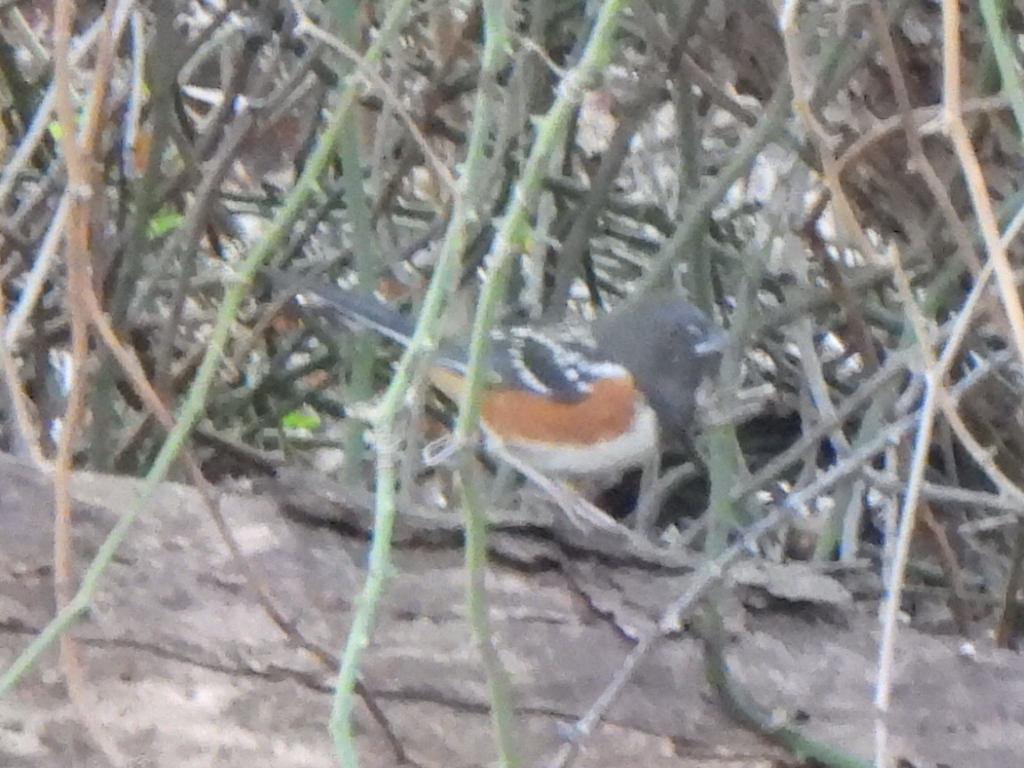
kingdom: Animalia
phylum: Chordata
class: Aves
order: Passeriformes
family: Passerellidae
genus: Pipilo
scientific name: Pipilo maculatus
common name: Spotted towhee
